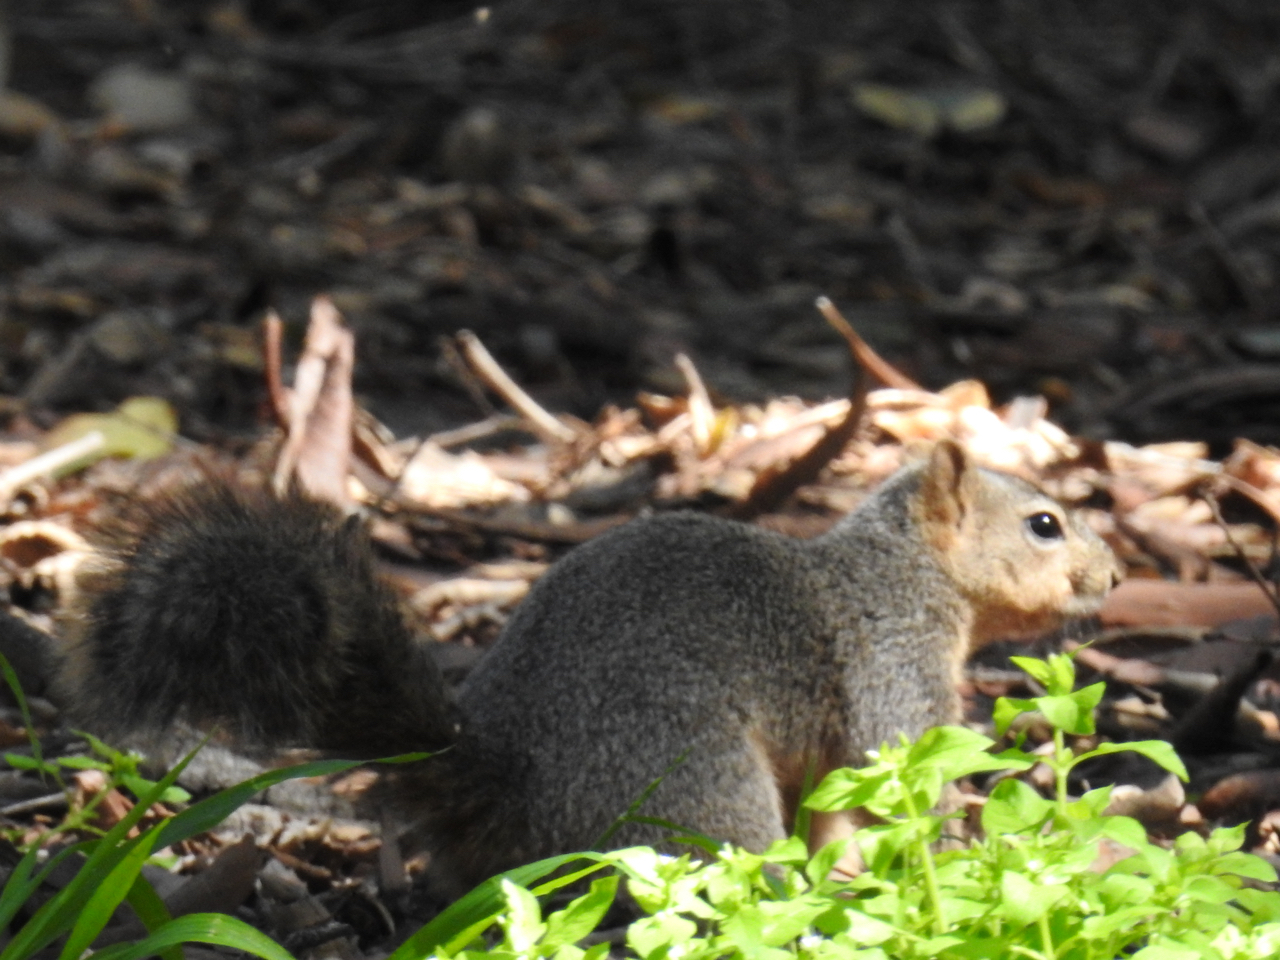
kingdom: Animalia
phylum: Chordata
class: Mammalia
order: Rodentia
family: Sciuridae
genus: Sciurus
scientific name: Sciurus niger
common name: Fox squirrel
